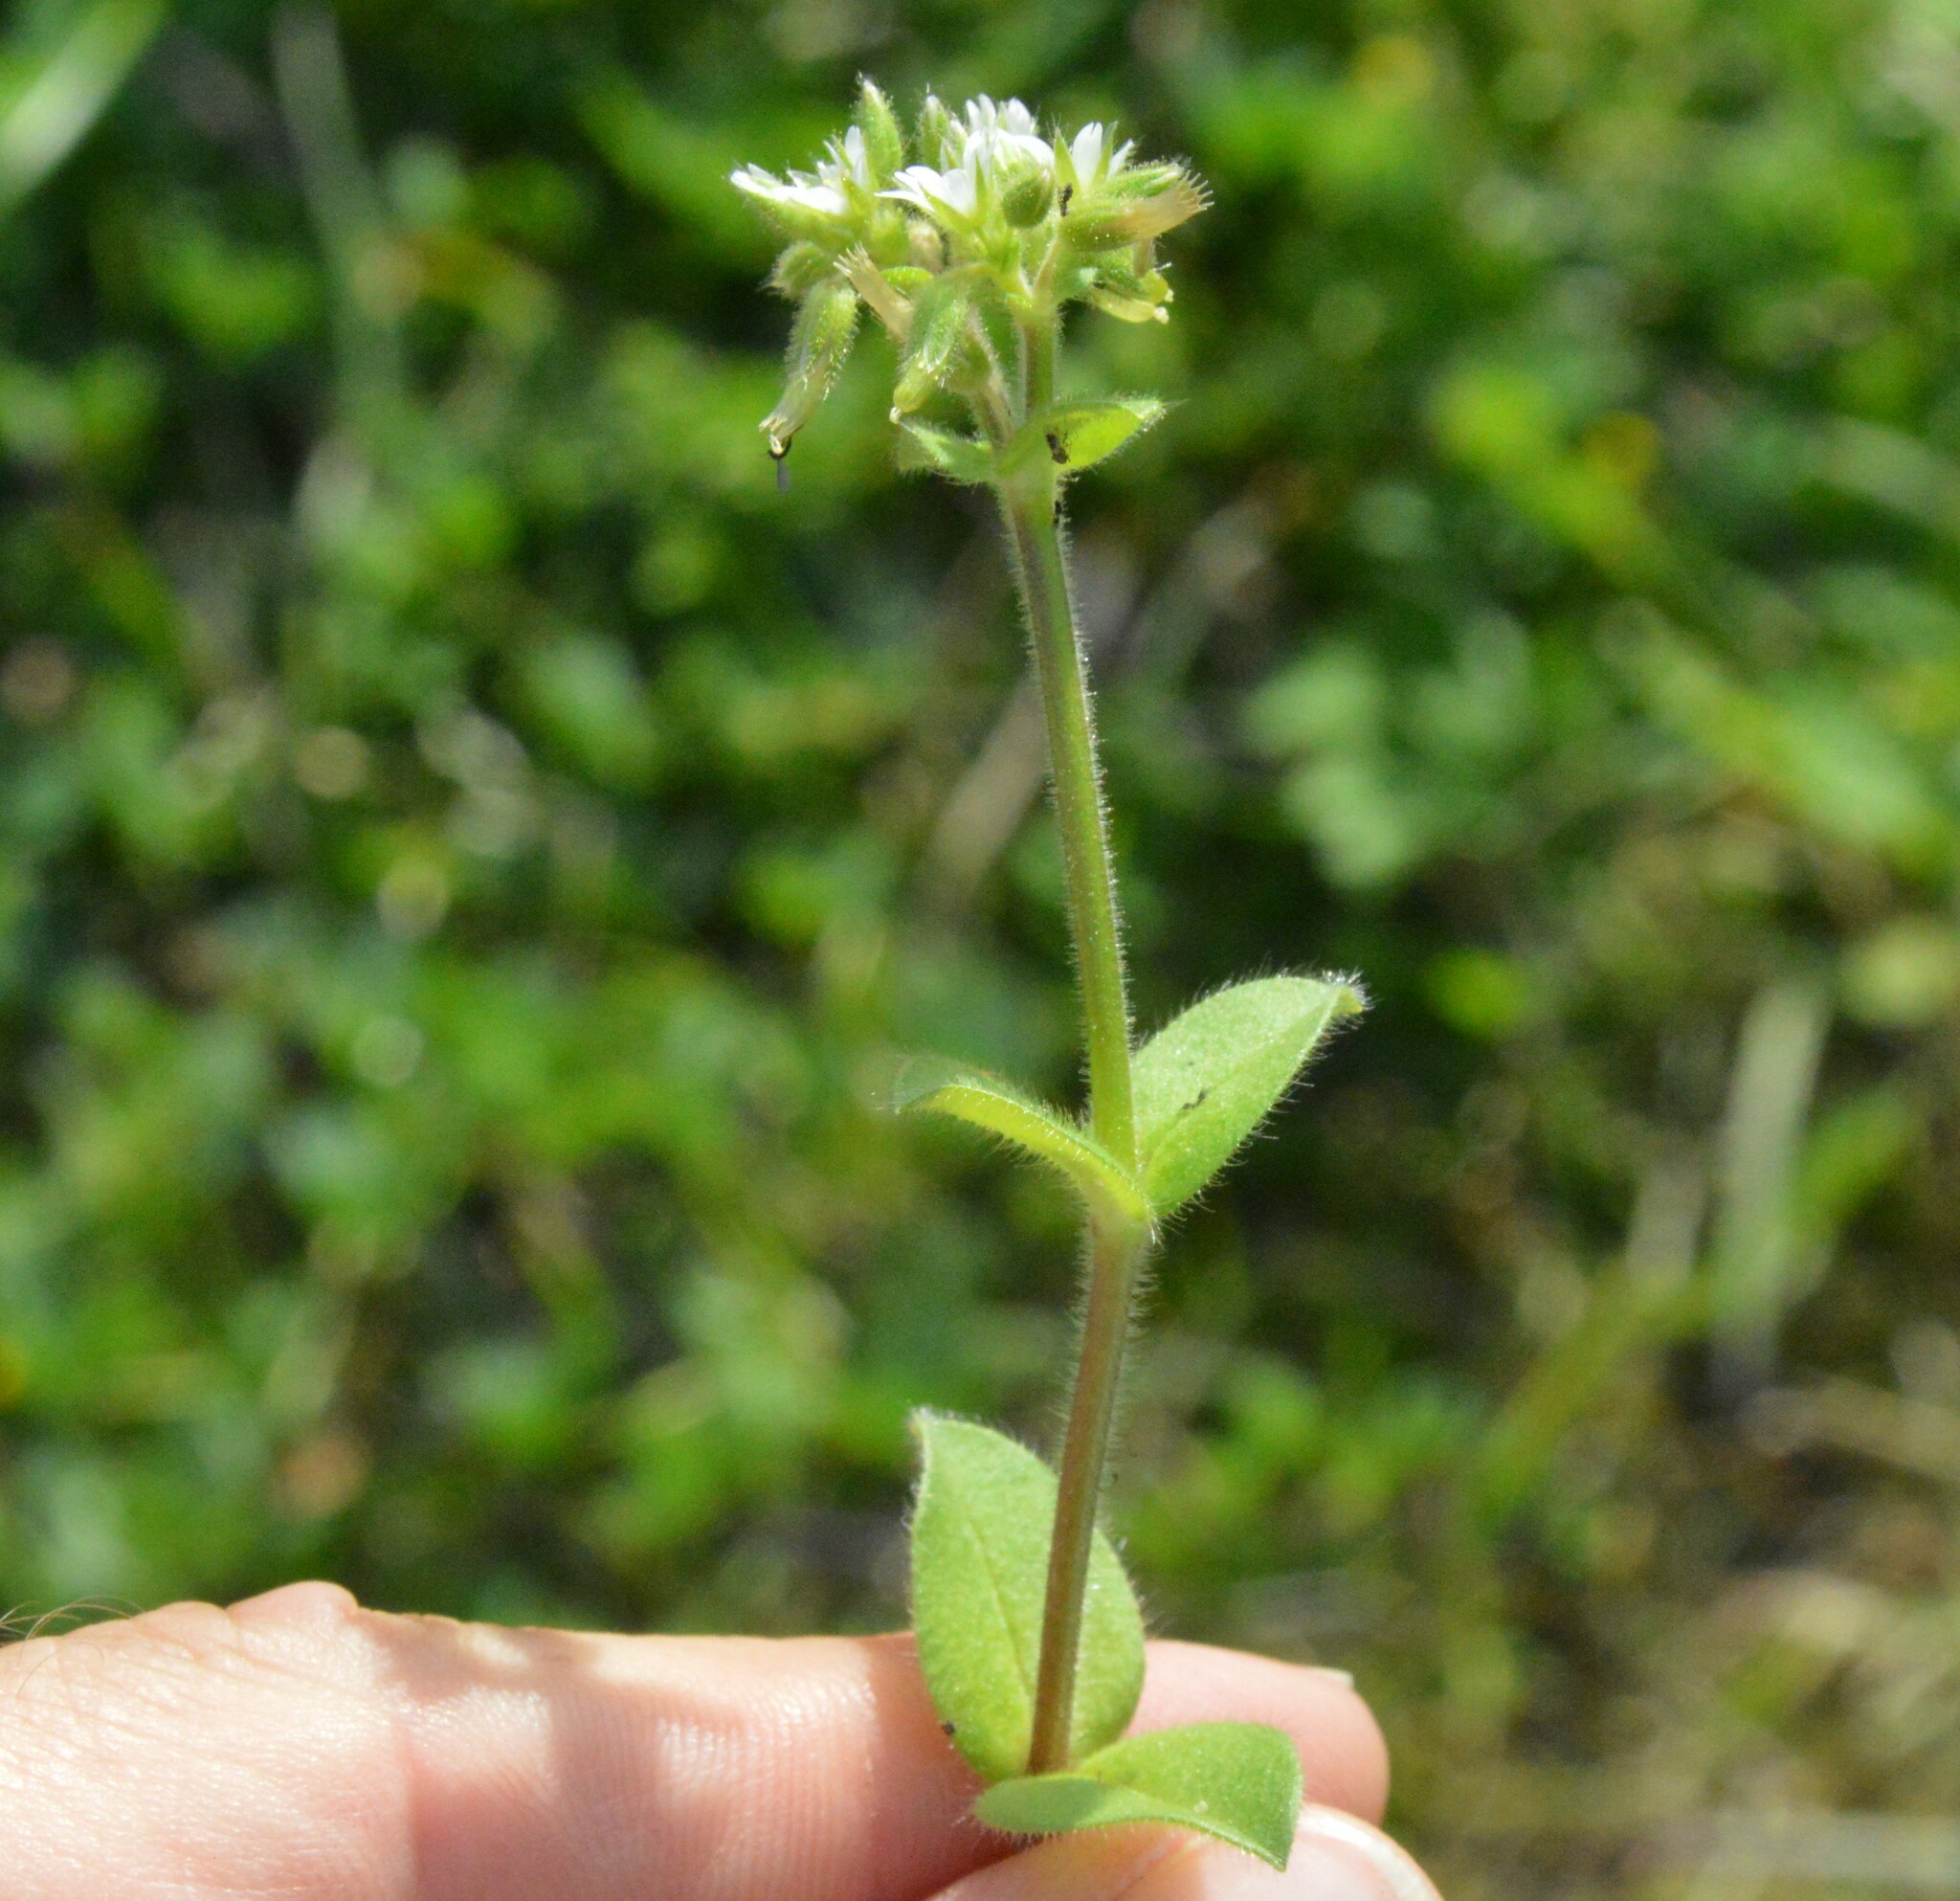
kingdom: Plantae
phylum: Tracheophyta
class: Magnoliopsida
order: Caryophyllales
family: Caryophyllaceae
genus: Cerastium
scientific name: Cerastium glomeratum
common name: Sticky chickweed
